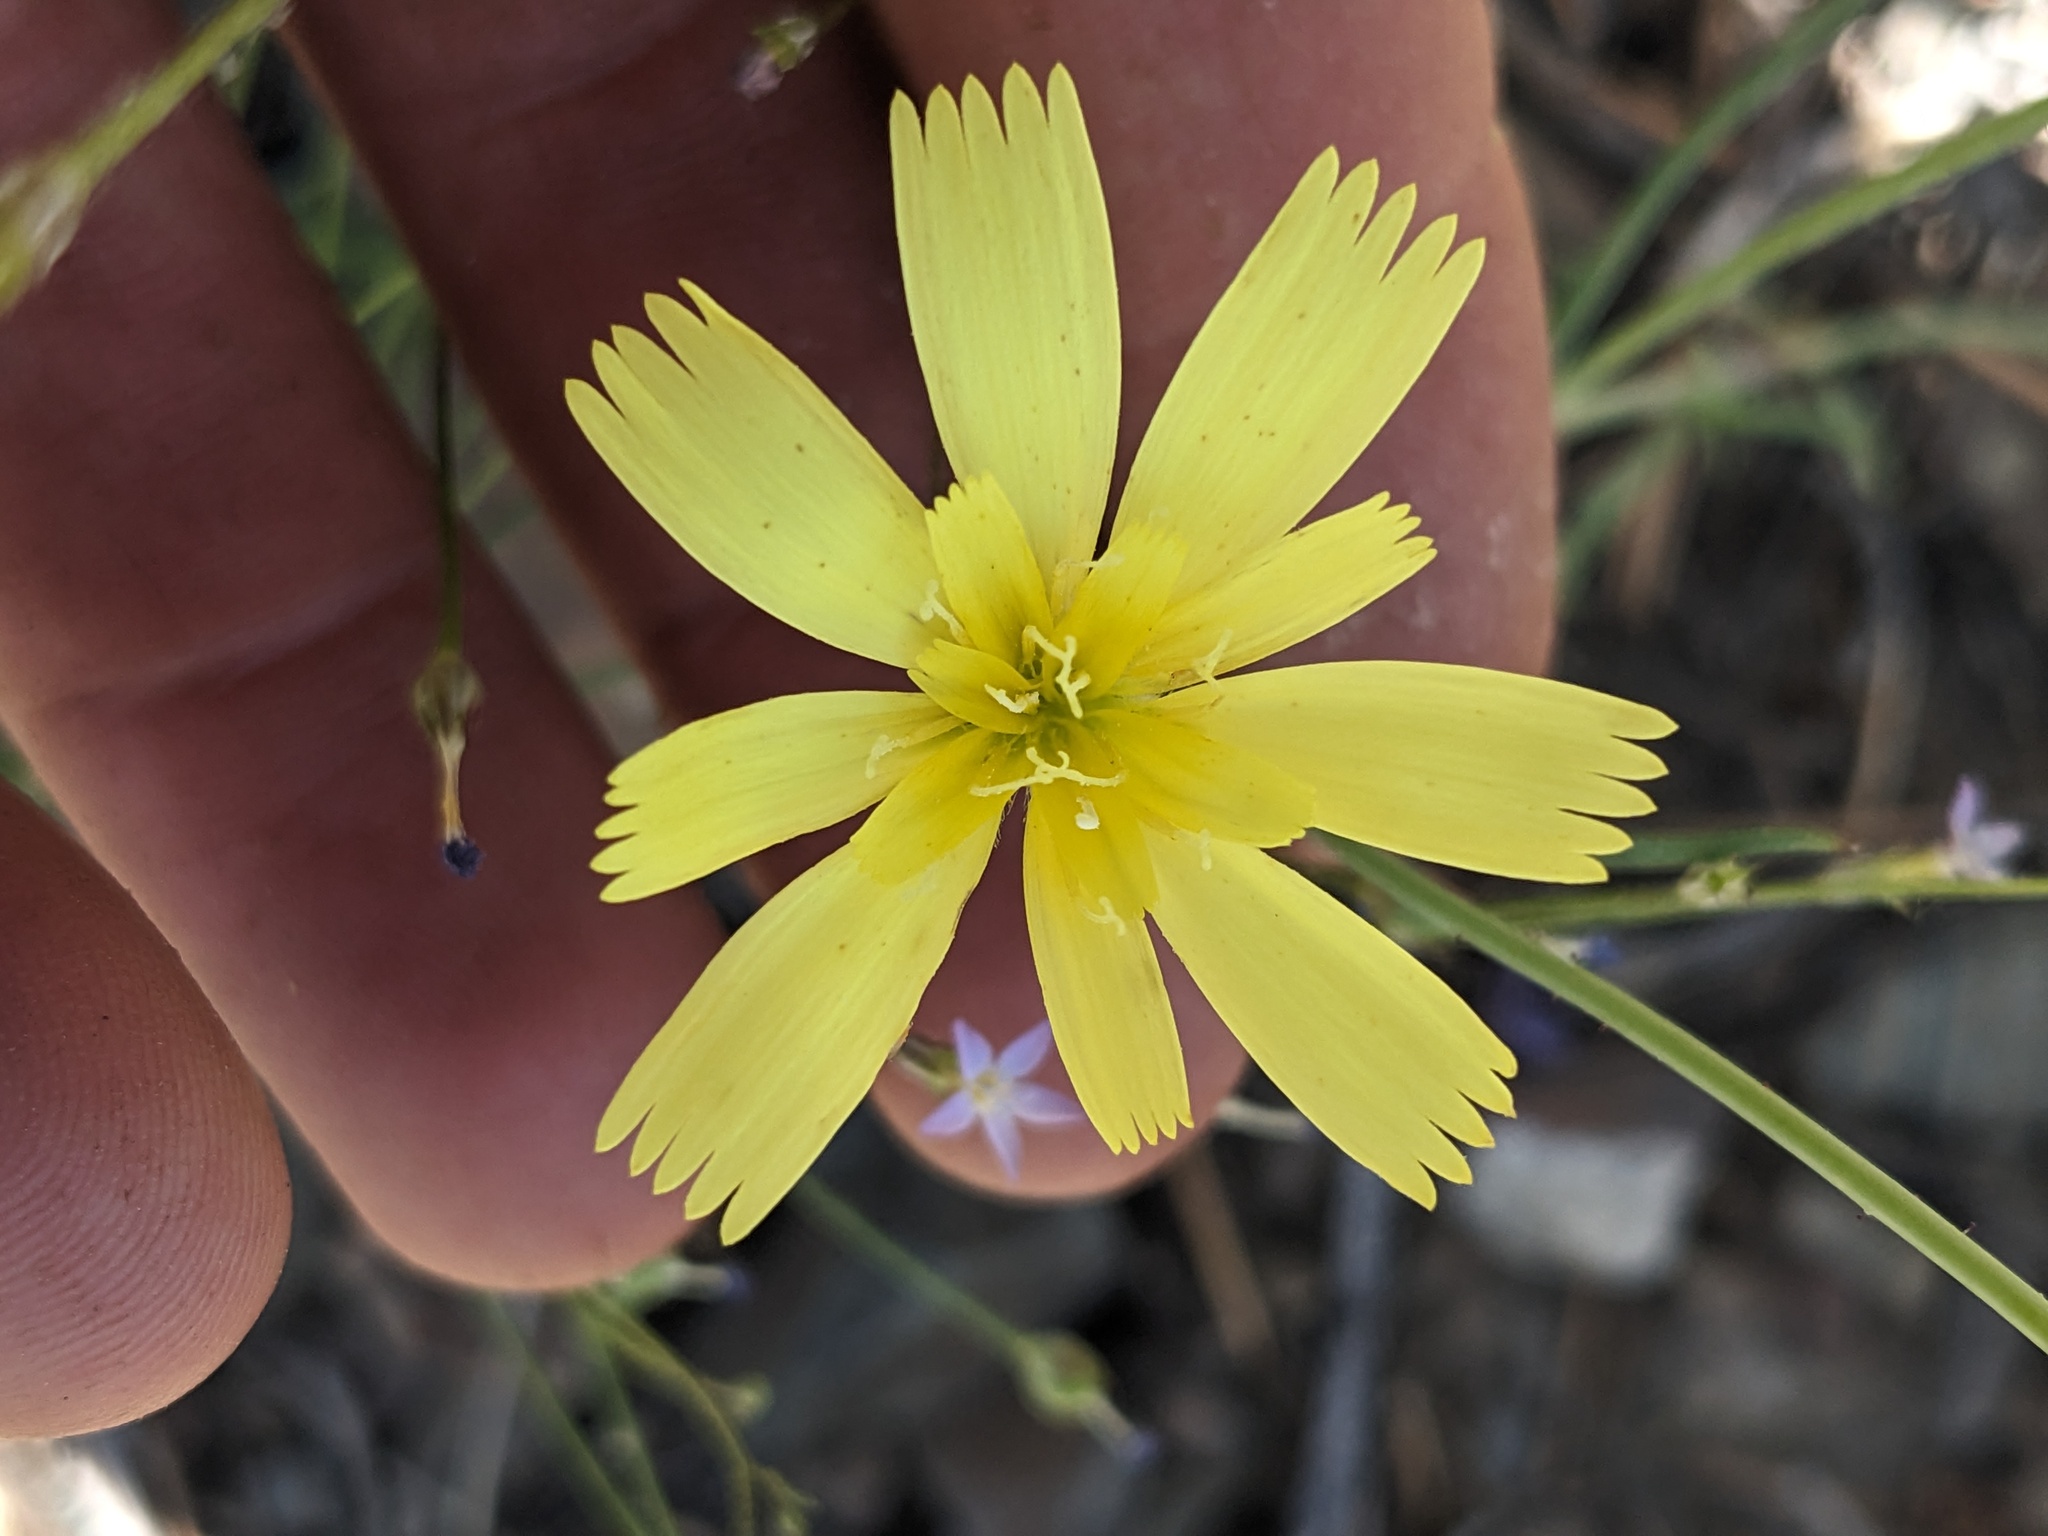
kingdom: Plantae
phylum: Tracheophyta
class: Magnoliopsida
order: Asterales
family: Asteraceae
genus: Calycoseris
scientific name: Calycoseris parryi
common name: Yellow tackstem
